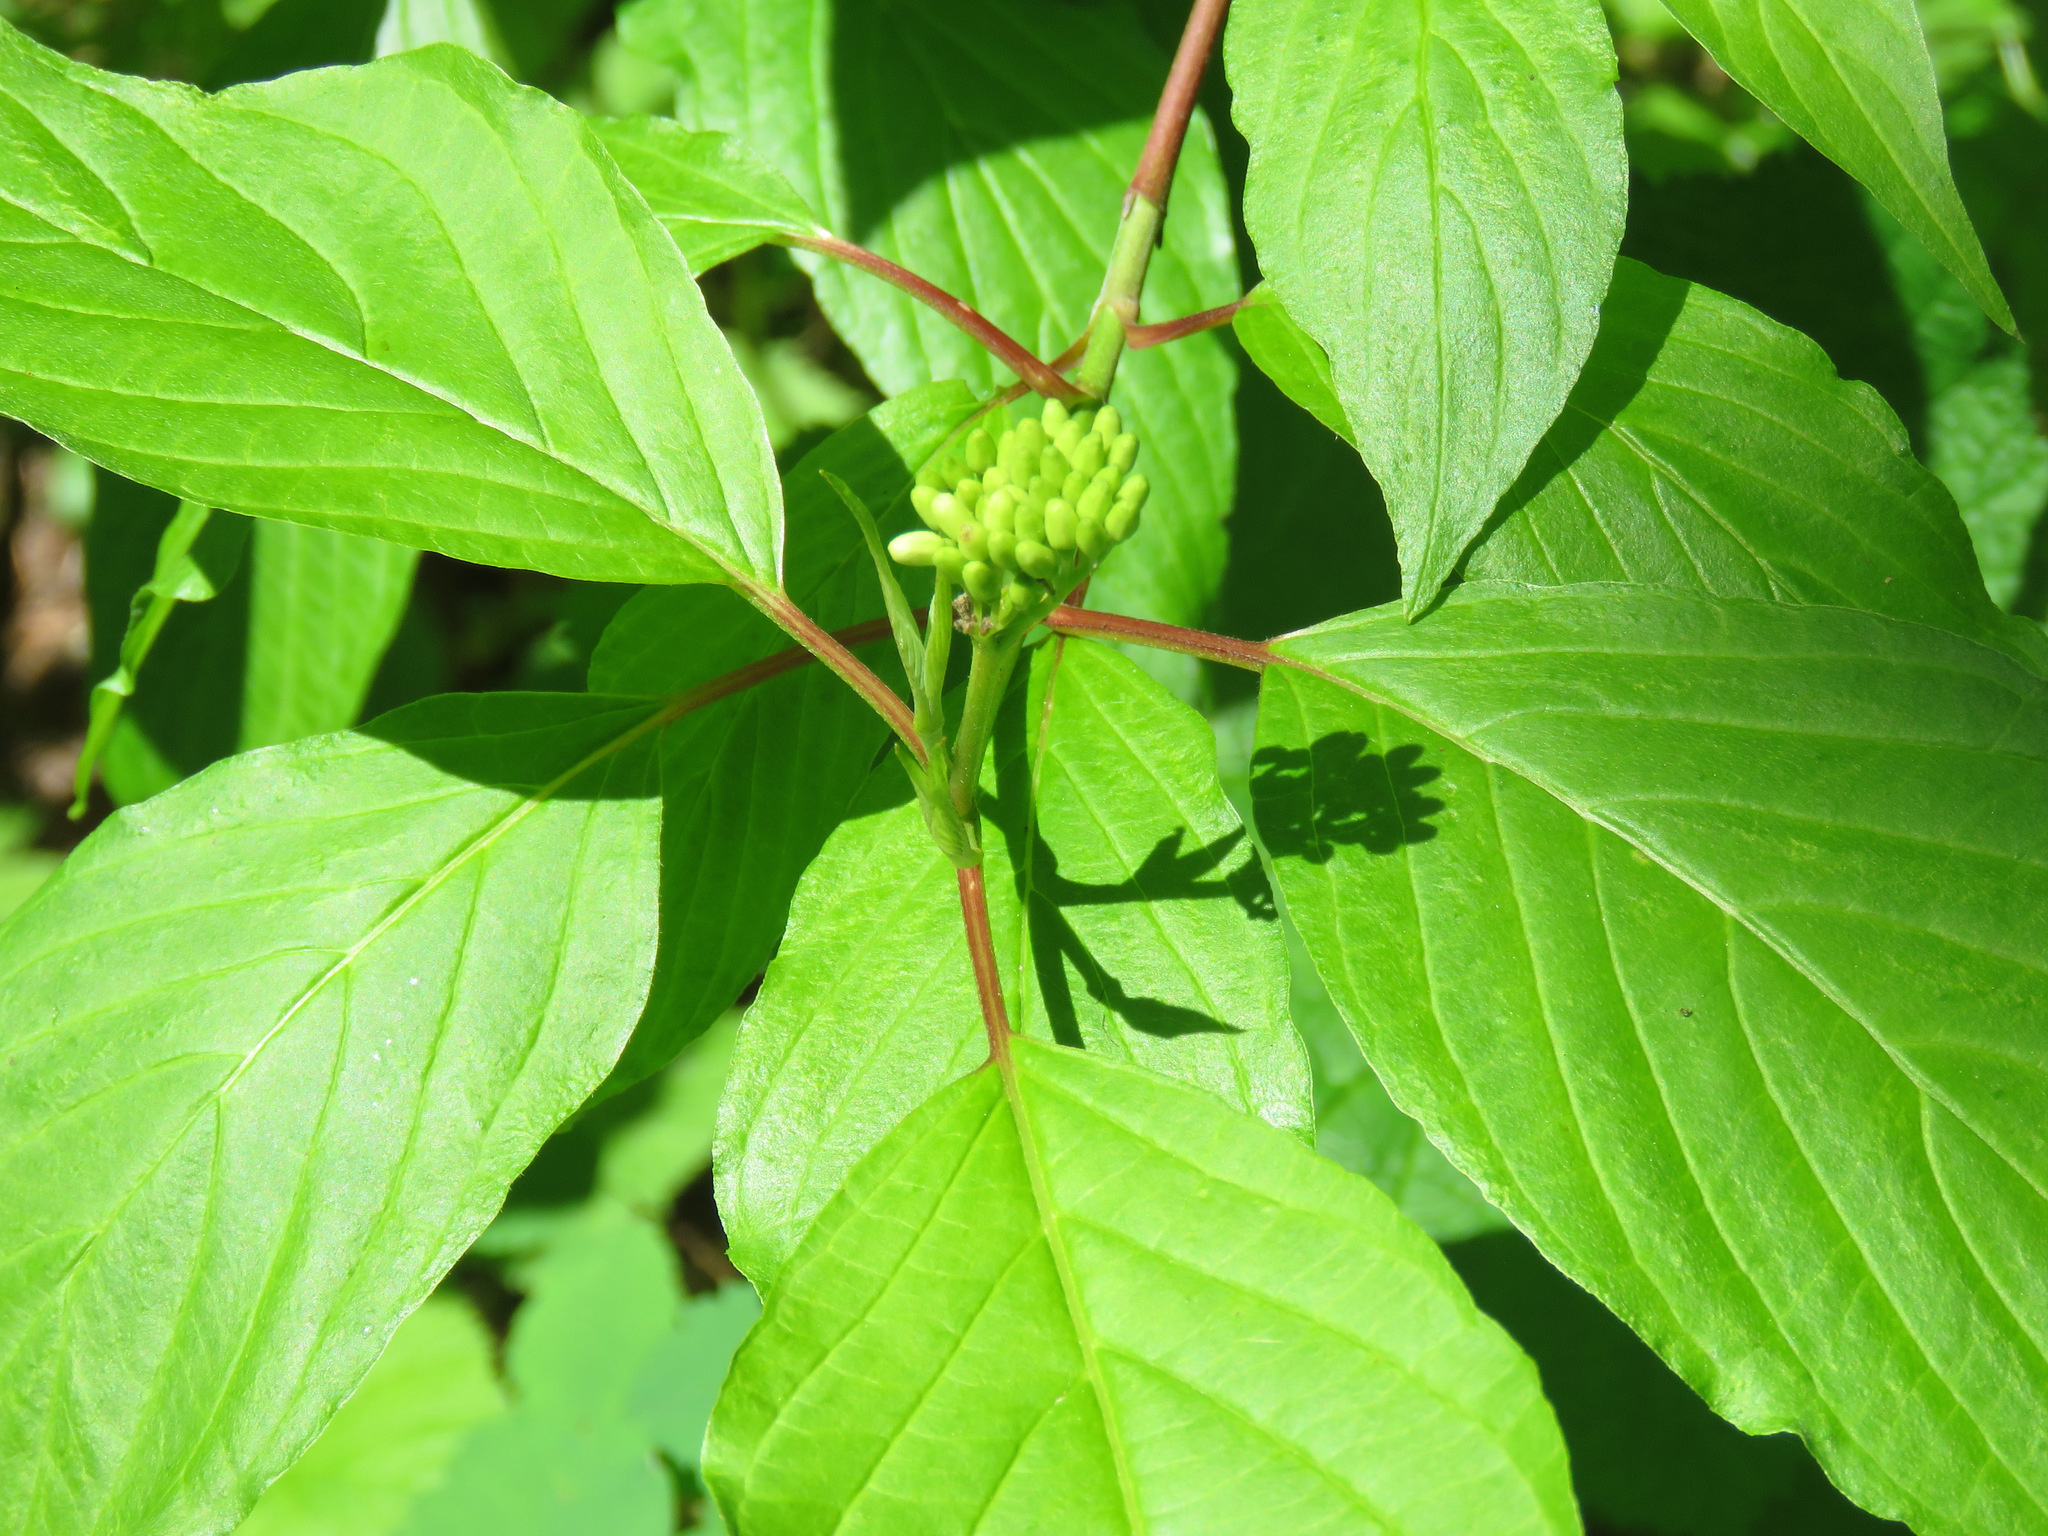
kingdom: Plantae
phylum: Tracheophyta
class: Magnoliopsida
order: Cornales
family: Cornaceae
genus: Cornus
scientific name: Cornus sericea
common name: Red-osier dogwood
